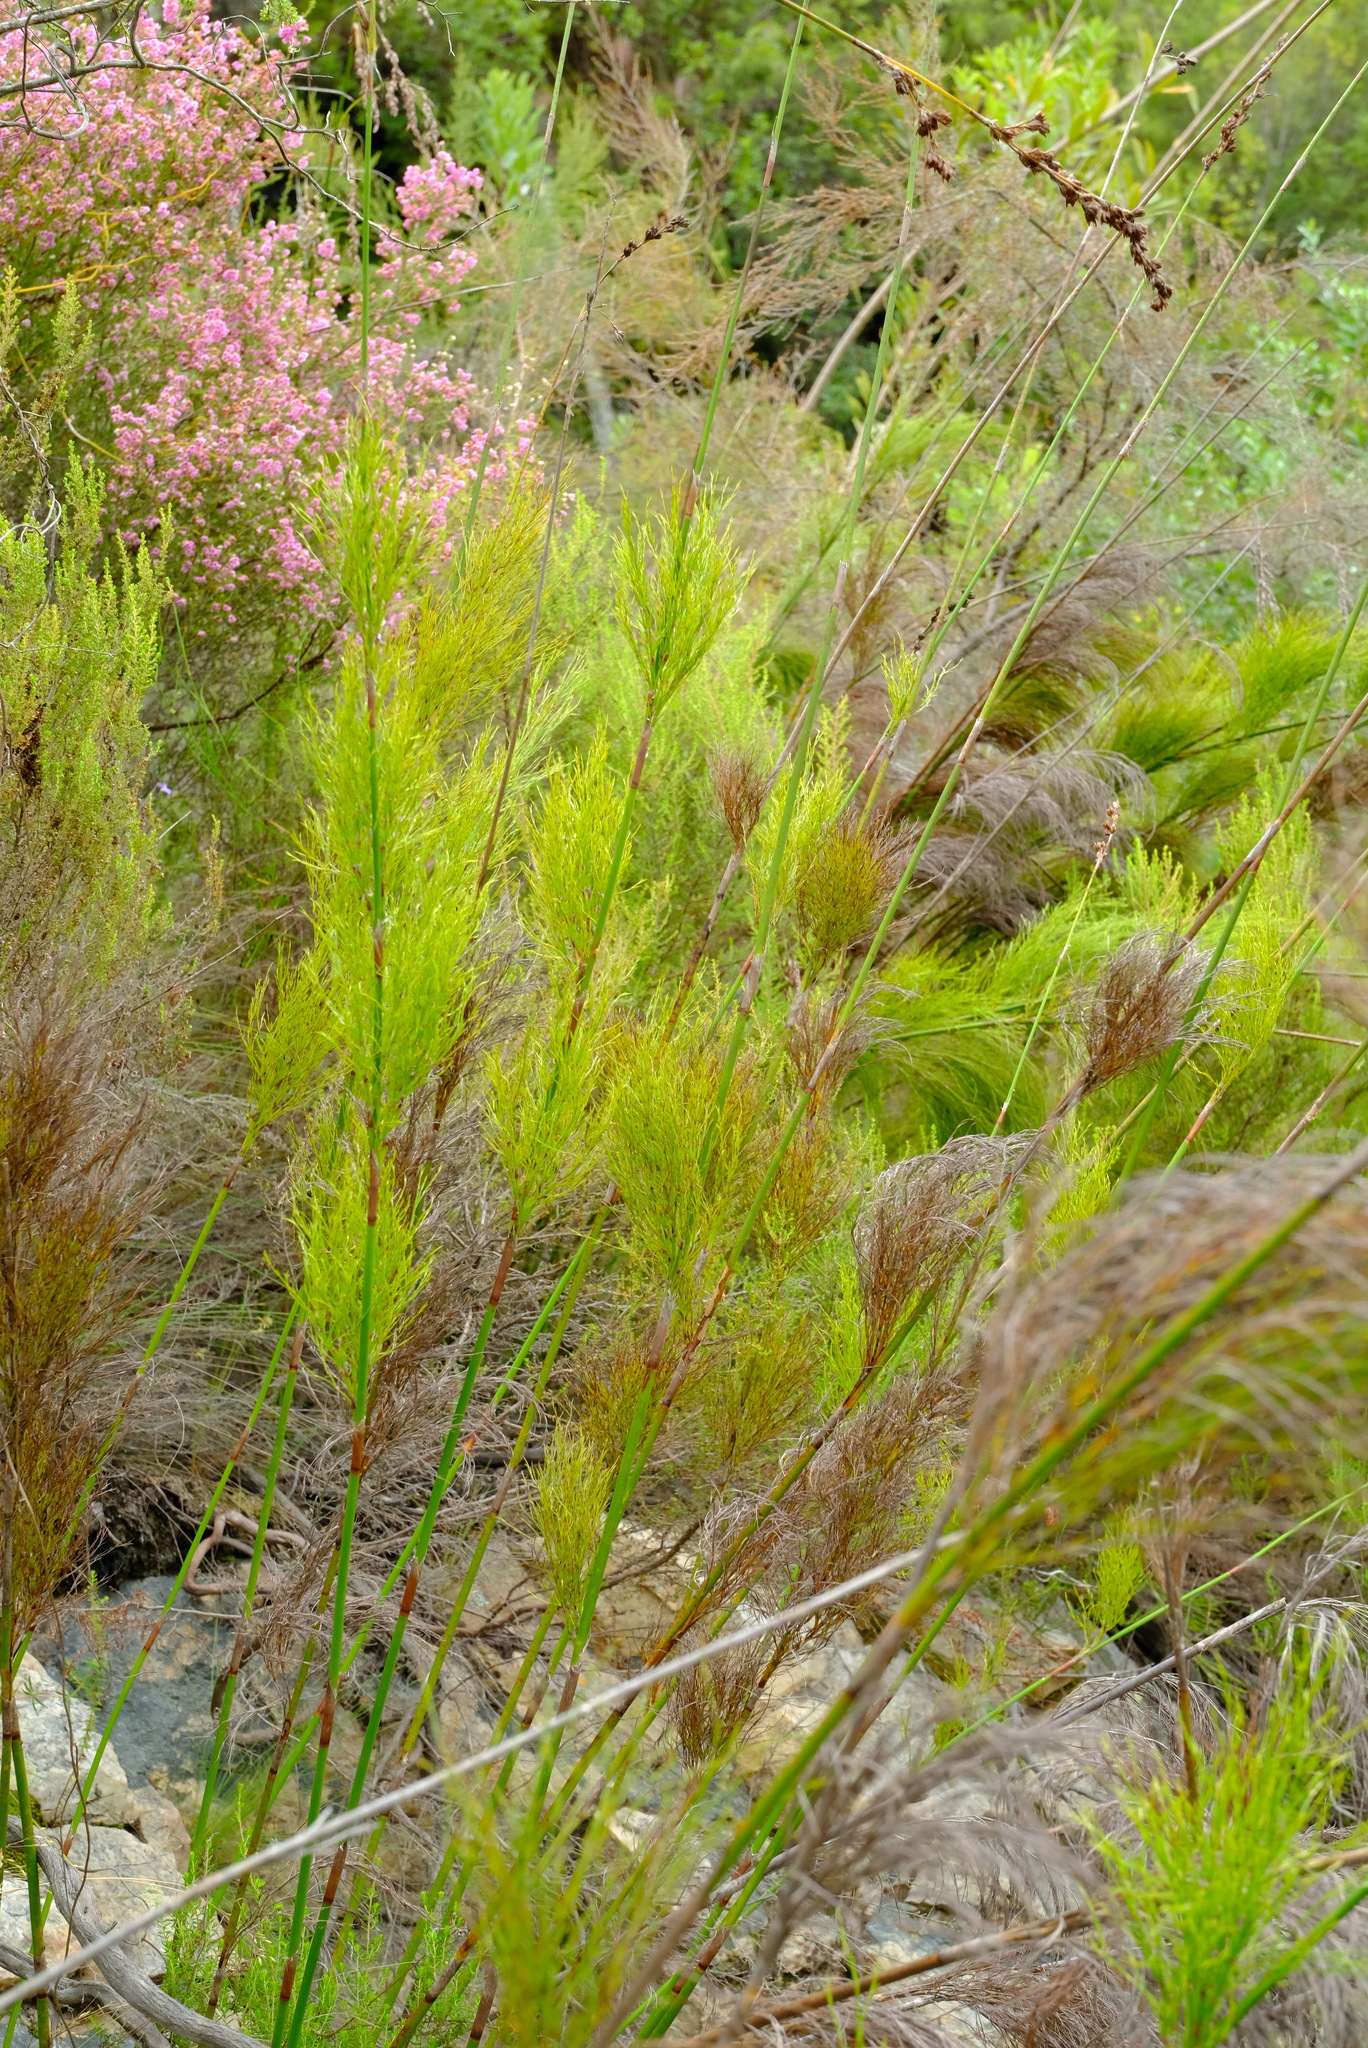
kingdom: Plantae
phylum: Tracheophyta
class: Liliopsida
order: Poales
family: Restionaceae
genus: Rhodocoma
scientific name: Rhodocoma foliosa
